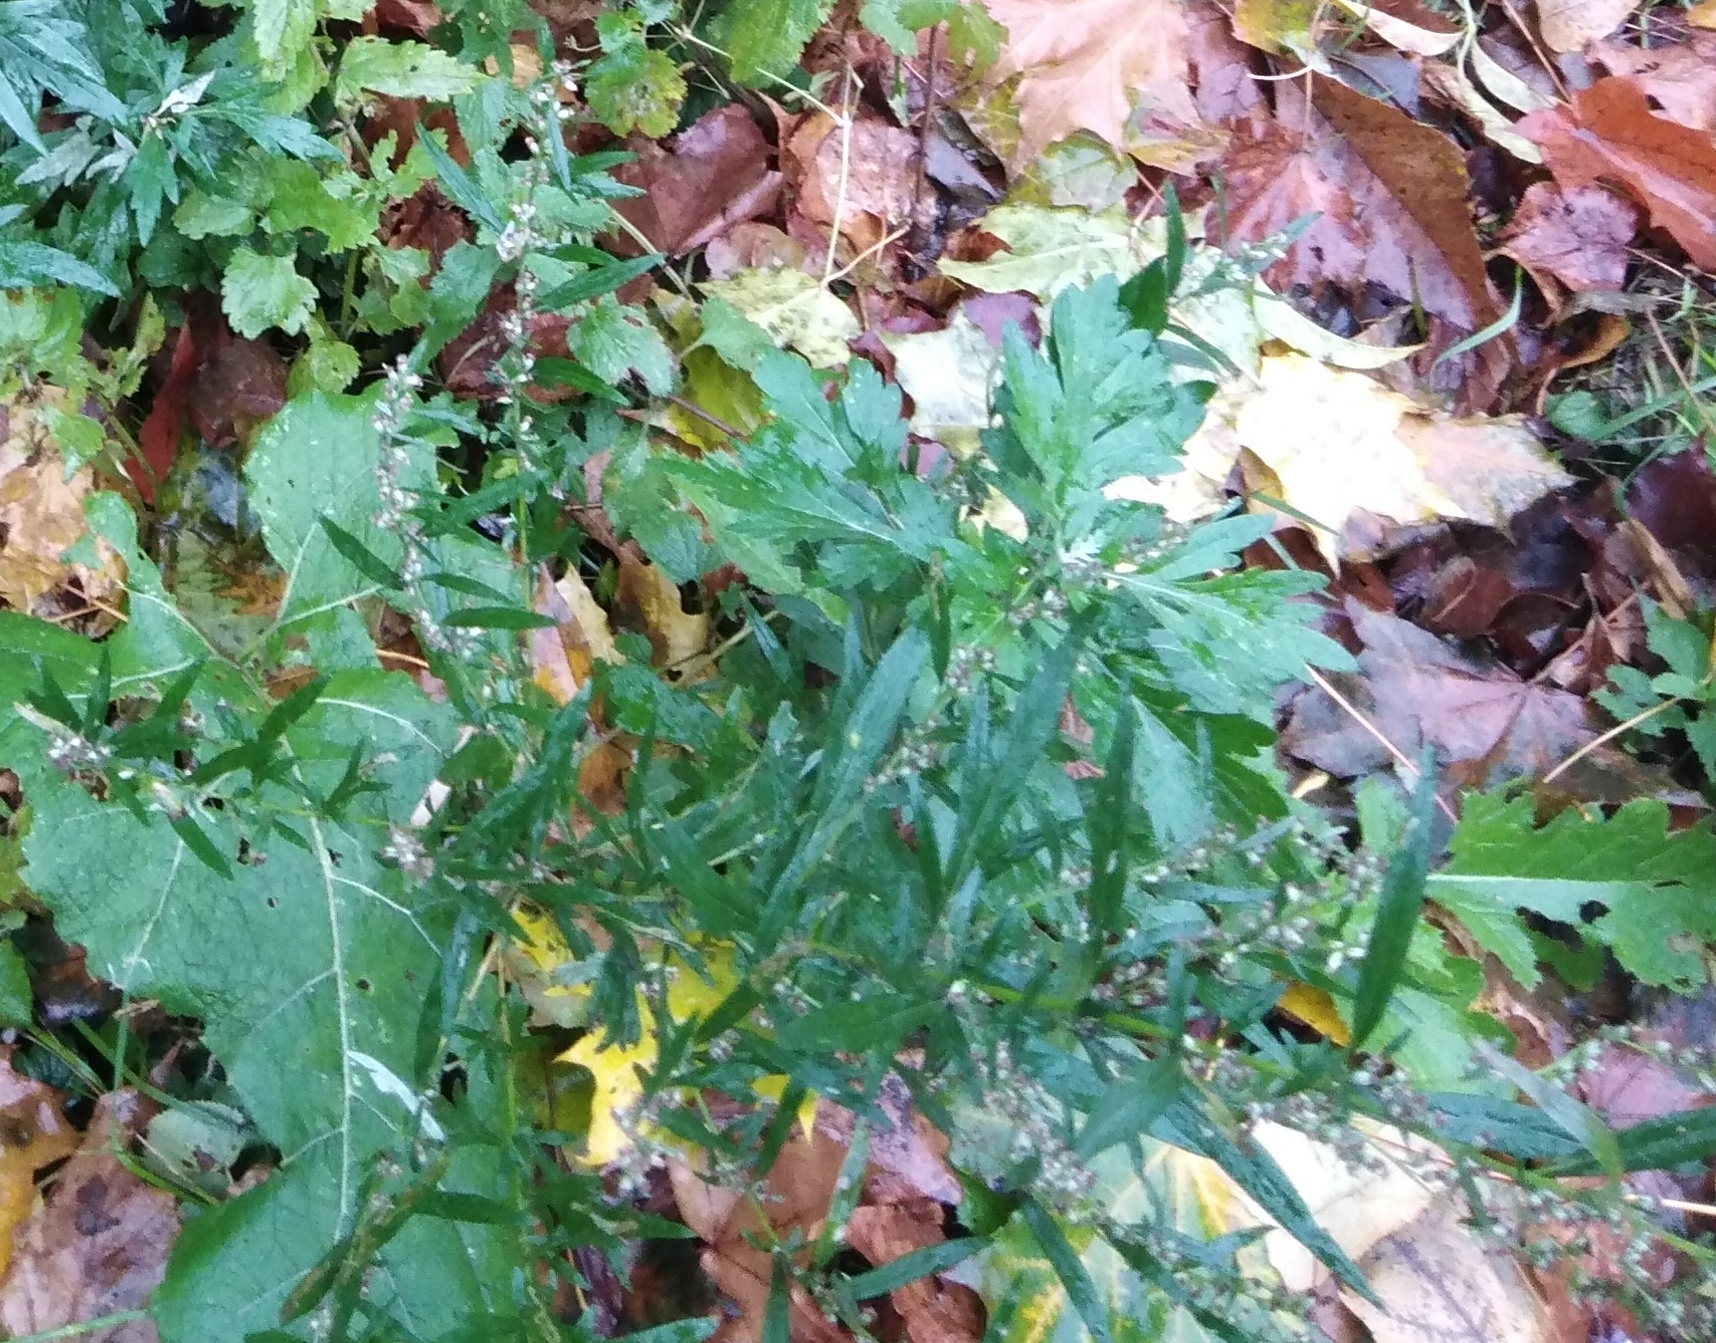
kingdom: Plantae
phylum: Tracheophyta
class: Magnoliopsida
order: Asterales
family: Asteraceae
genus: Artemisia
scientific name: Artemisia vulgaris
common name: Mugwort
